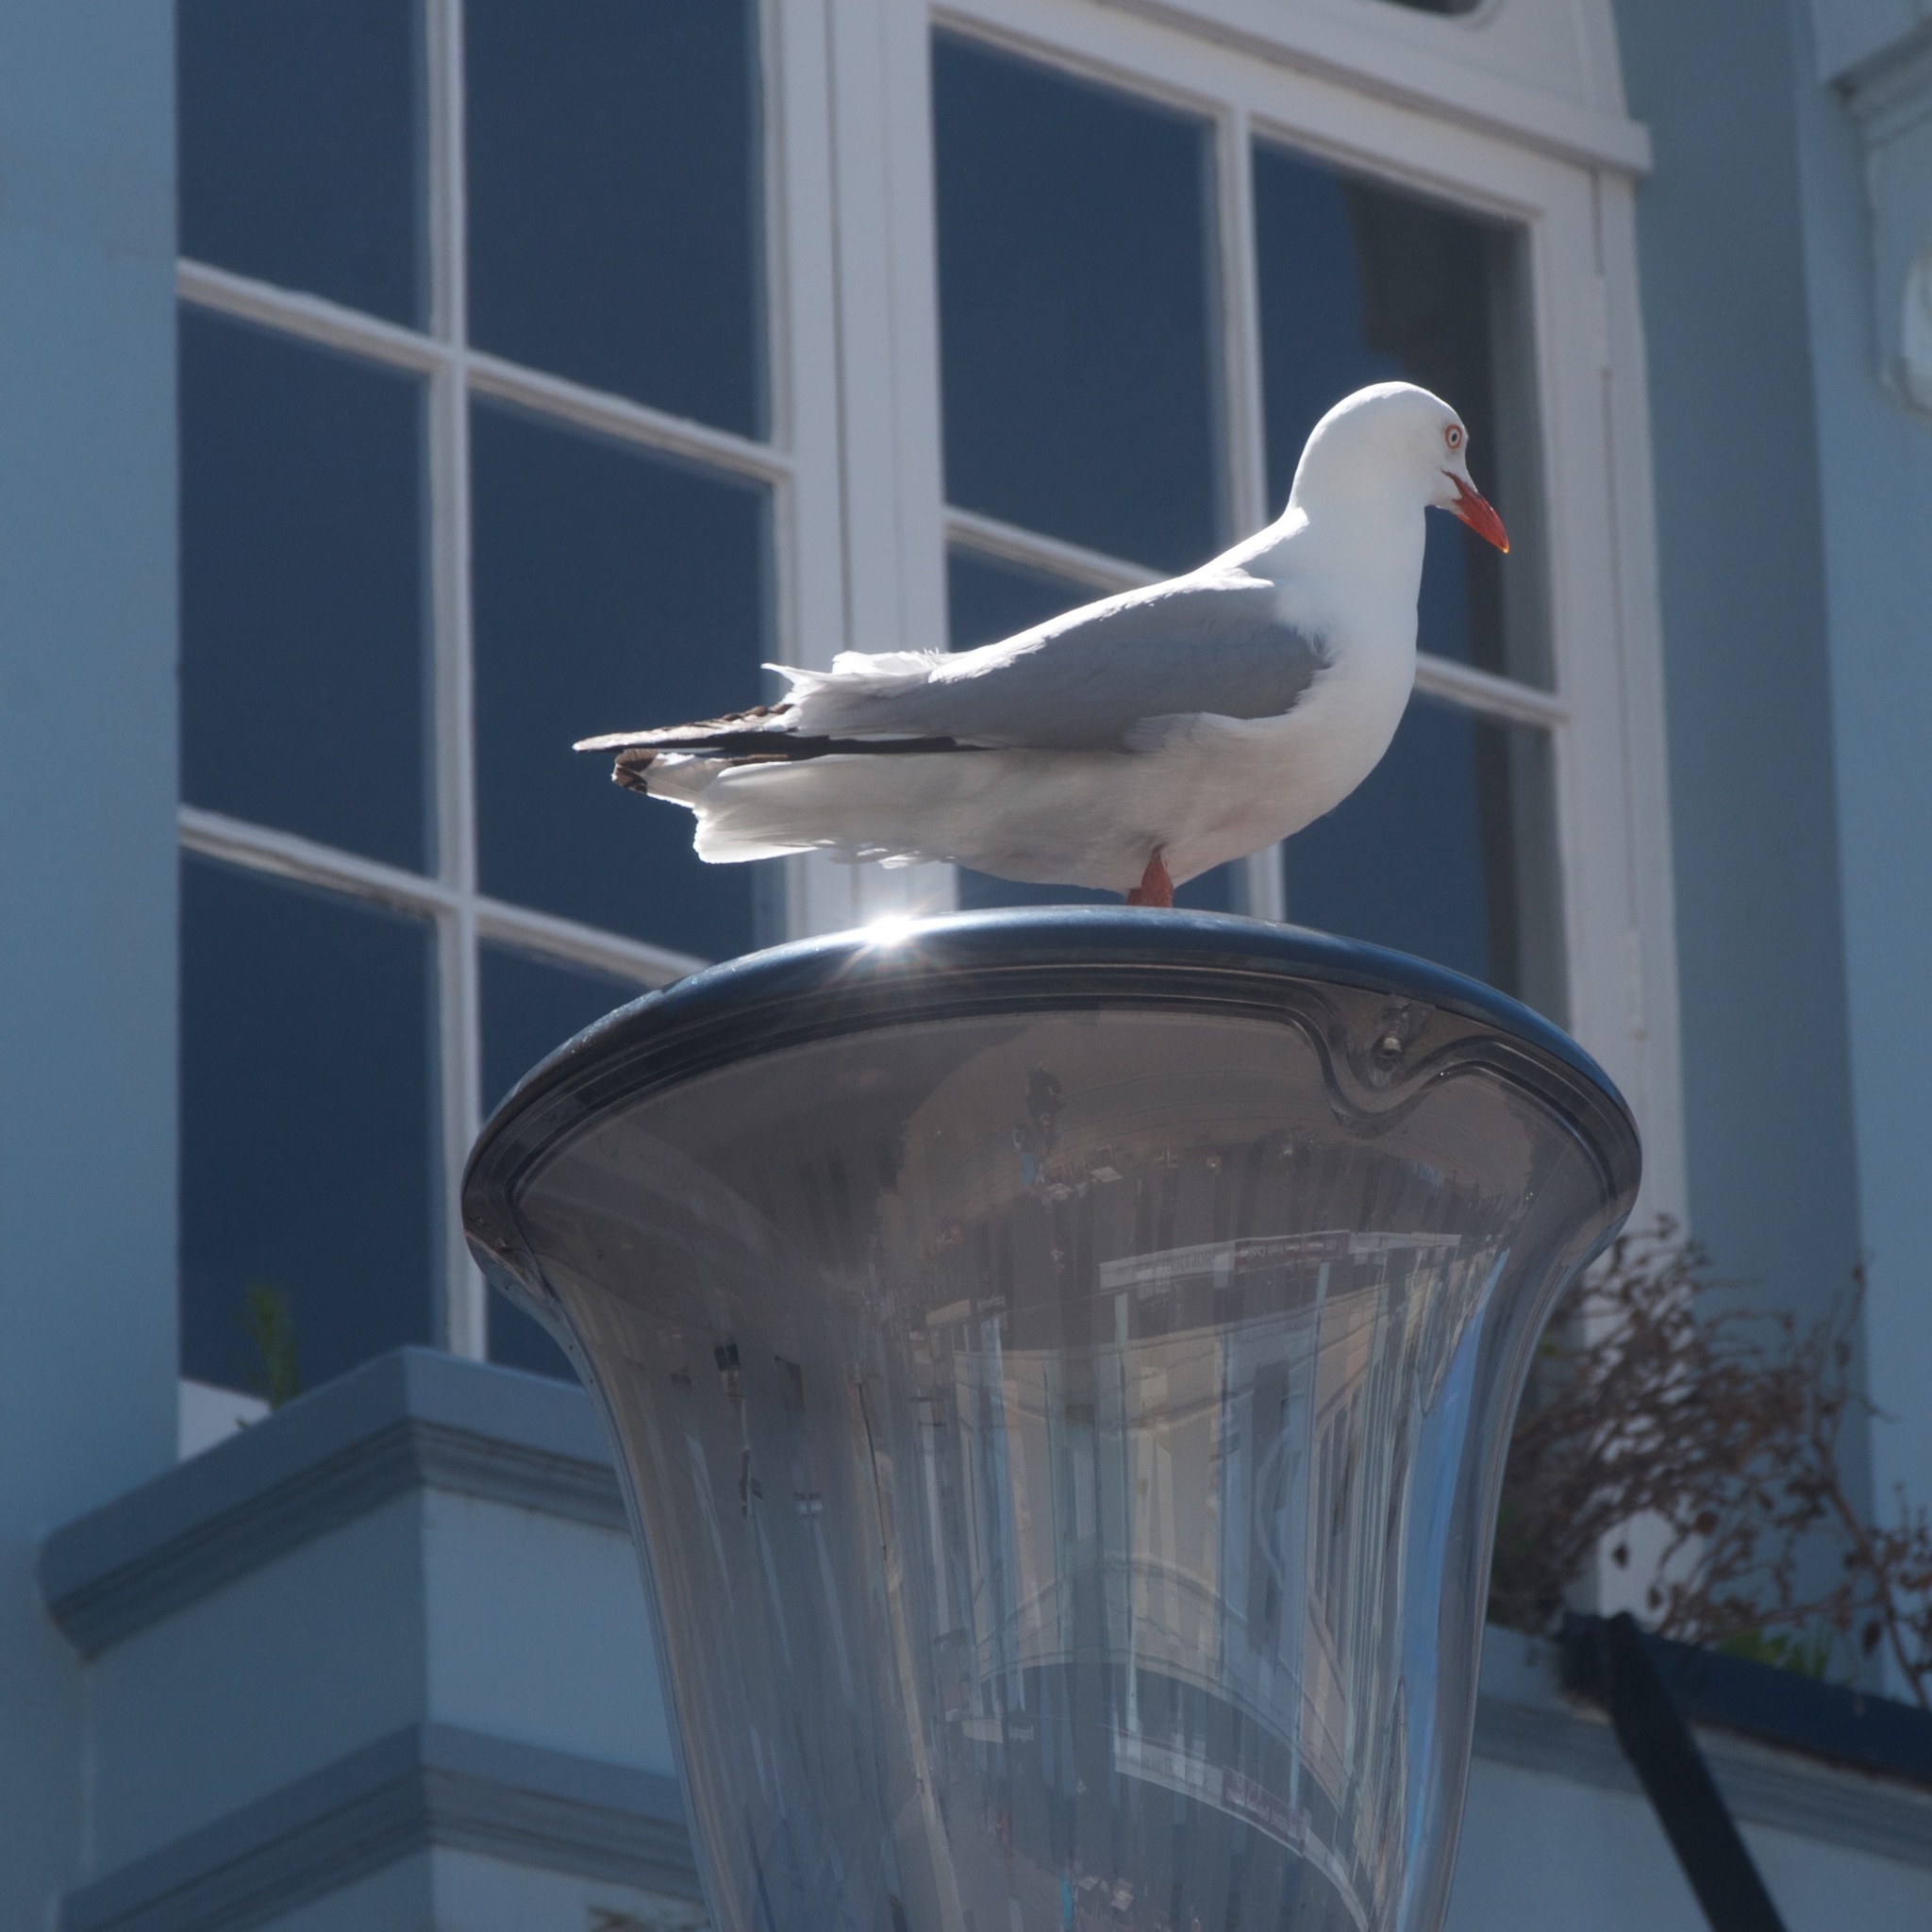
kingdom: Animalia
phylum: Chordata
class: Aves
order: Charadriiformes
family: Laridae
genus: Chroicocephalus
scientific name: Chroicocephalus novaehollandiae
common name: Silver gull
